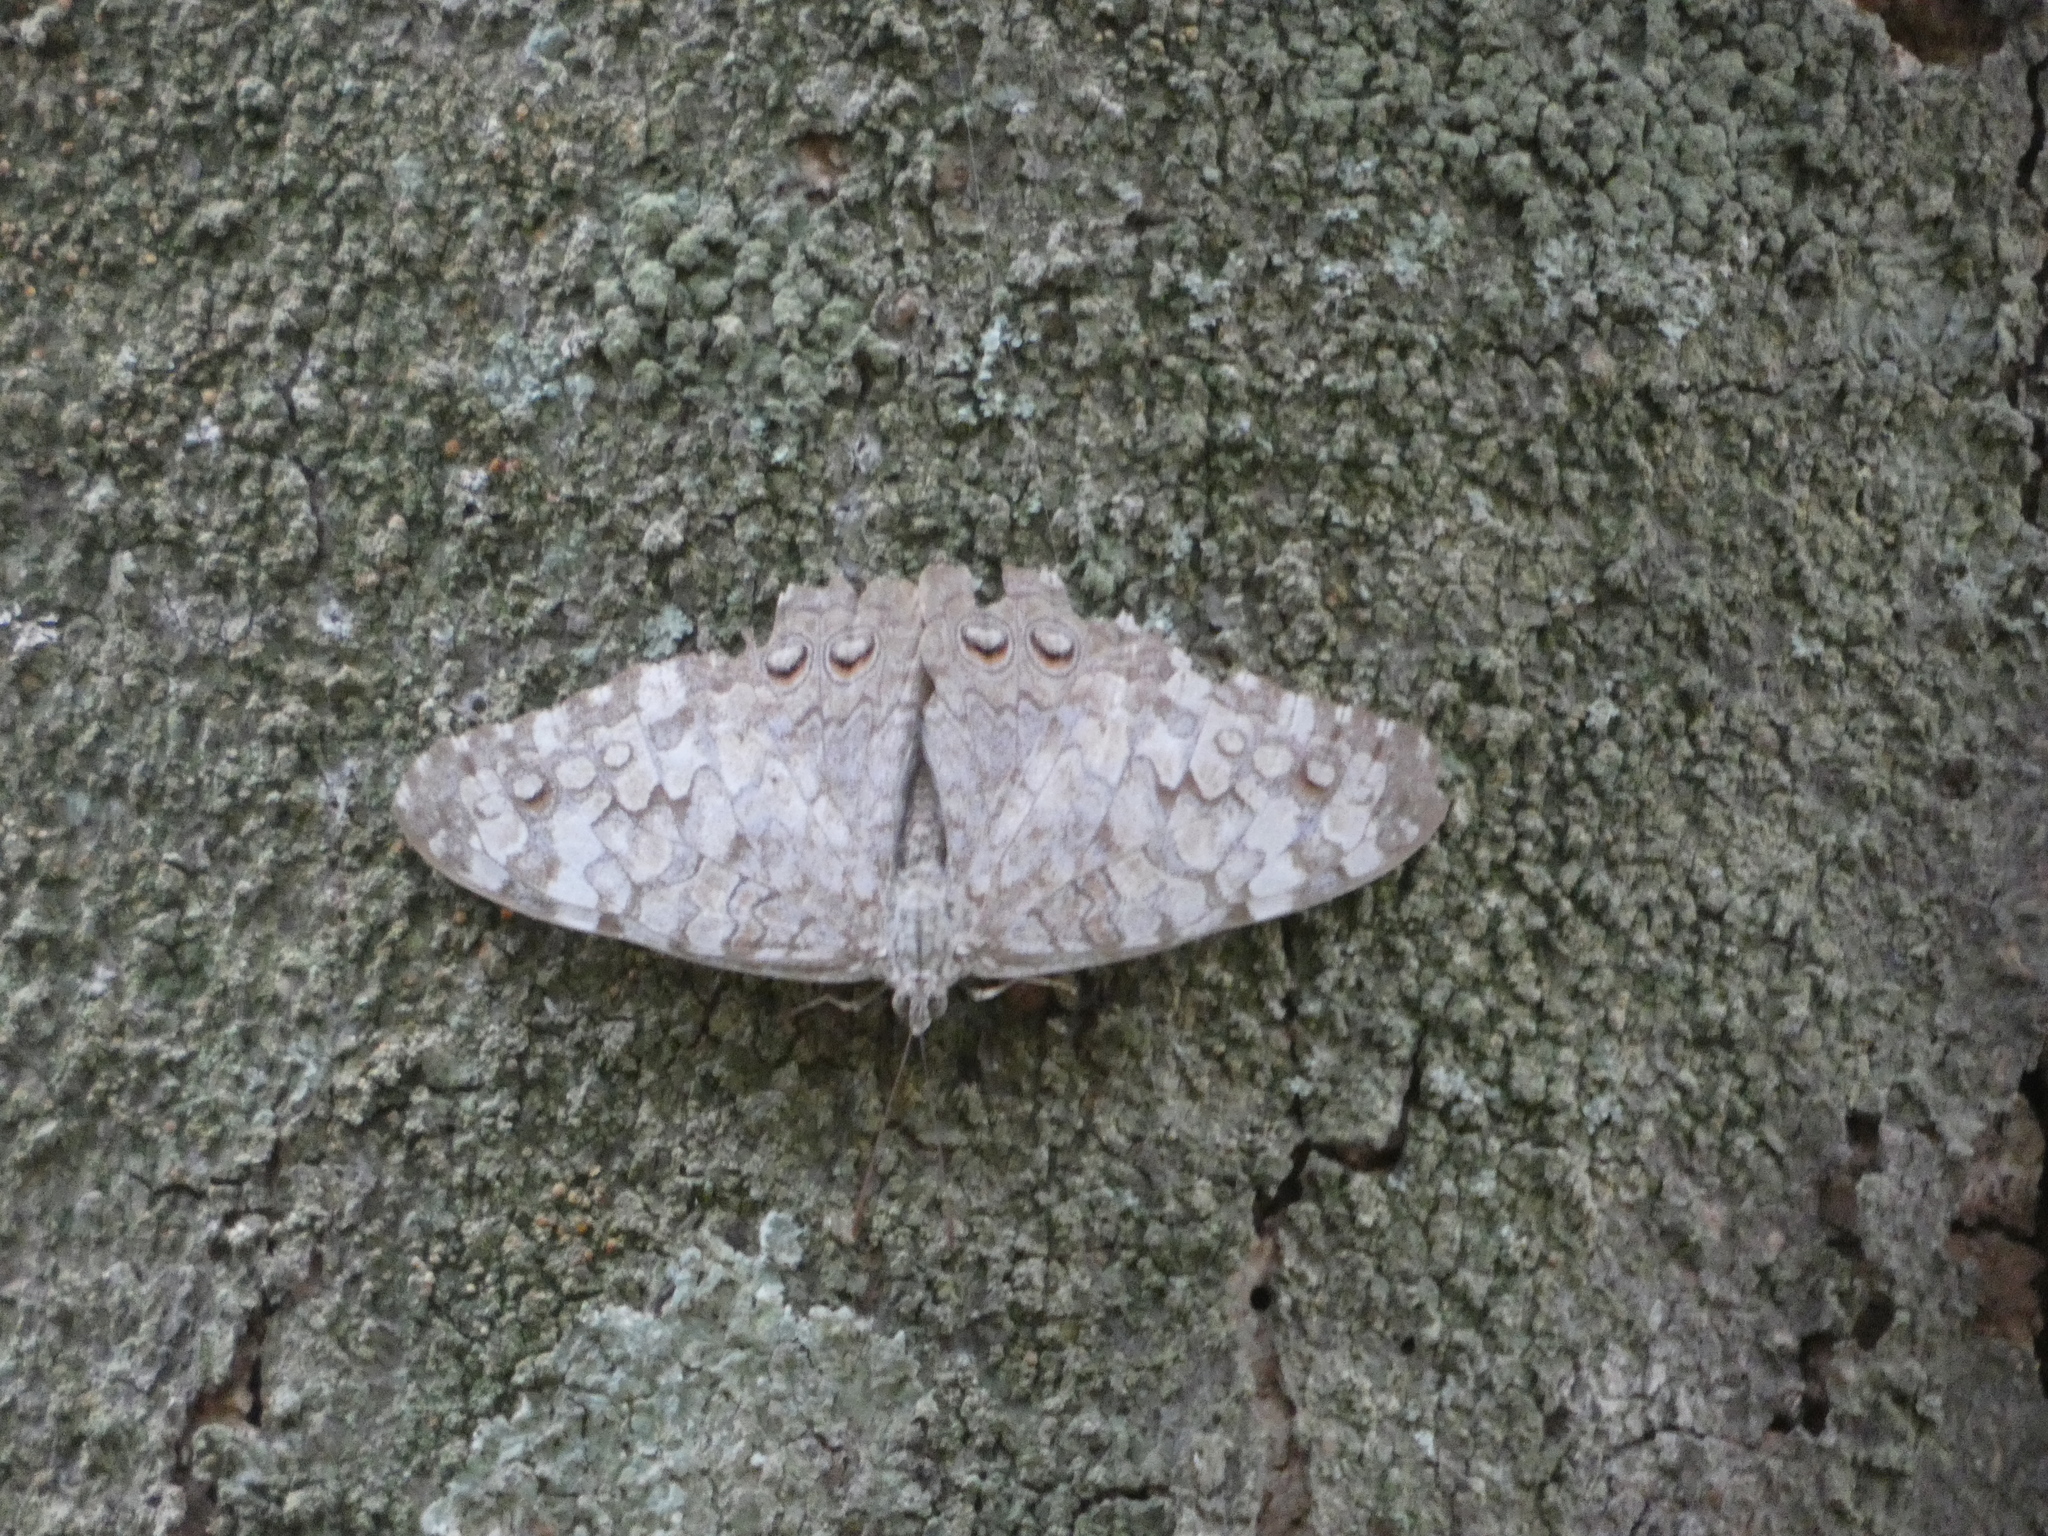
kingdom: Animalia
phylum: Arthropoda
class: Insecta
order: Lepidoptera
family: Nymphalidae
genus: Hamadryas
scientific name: Hamadryas februa
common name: Gray cracker
